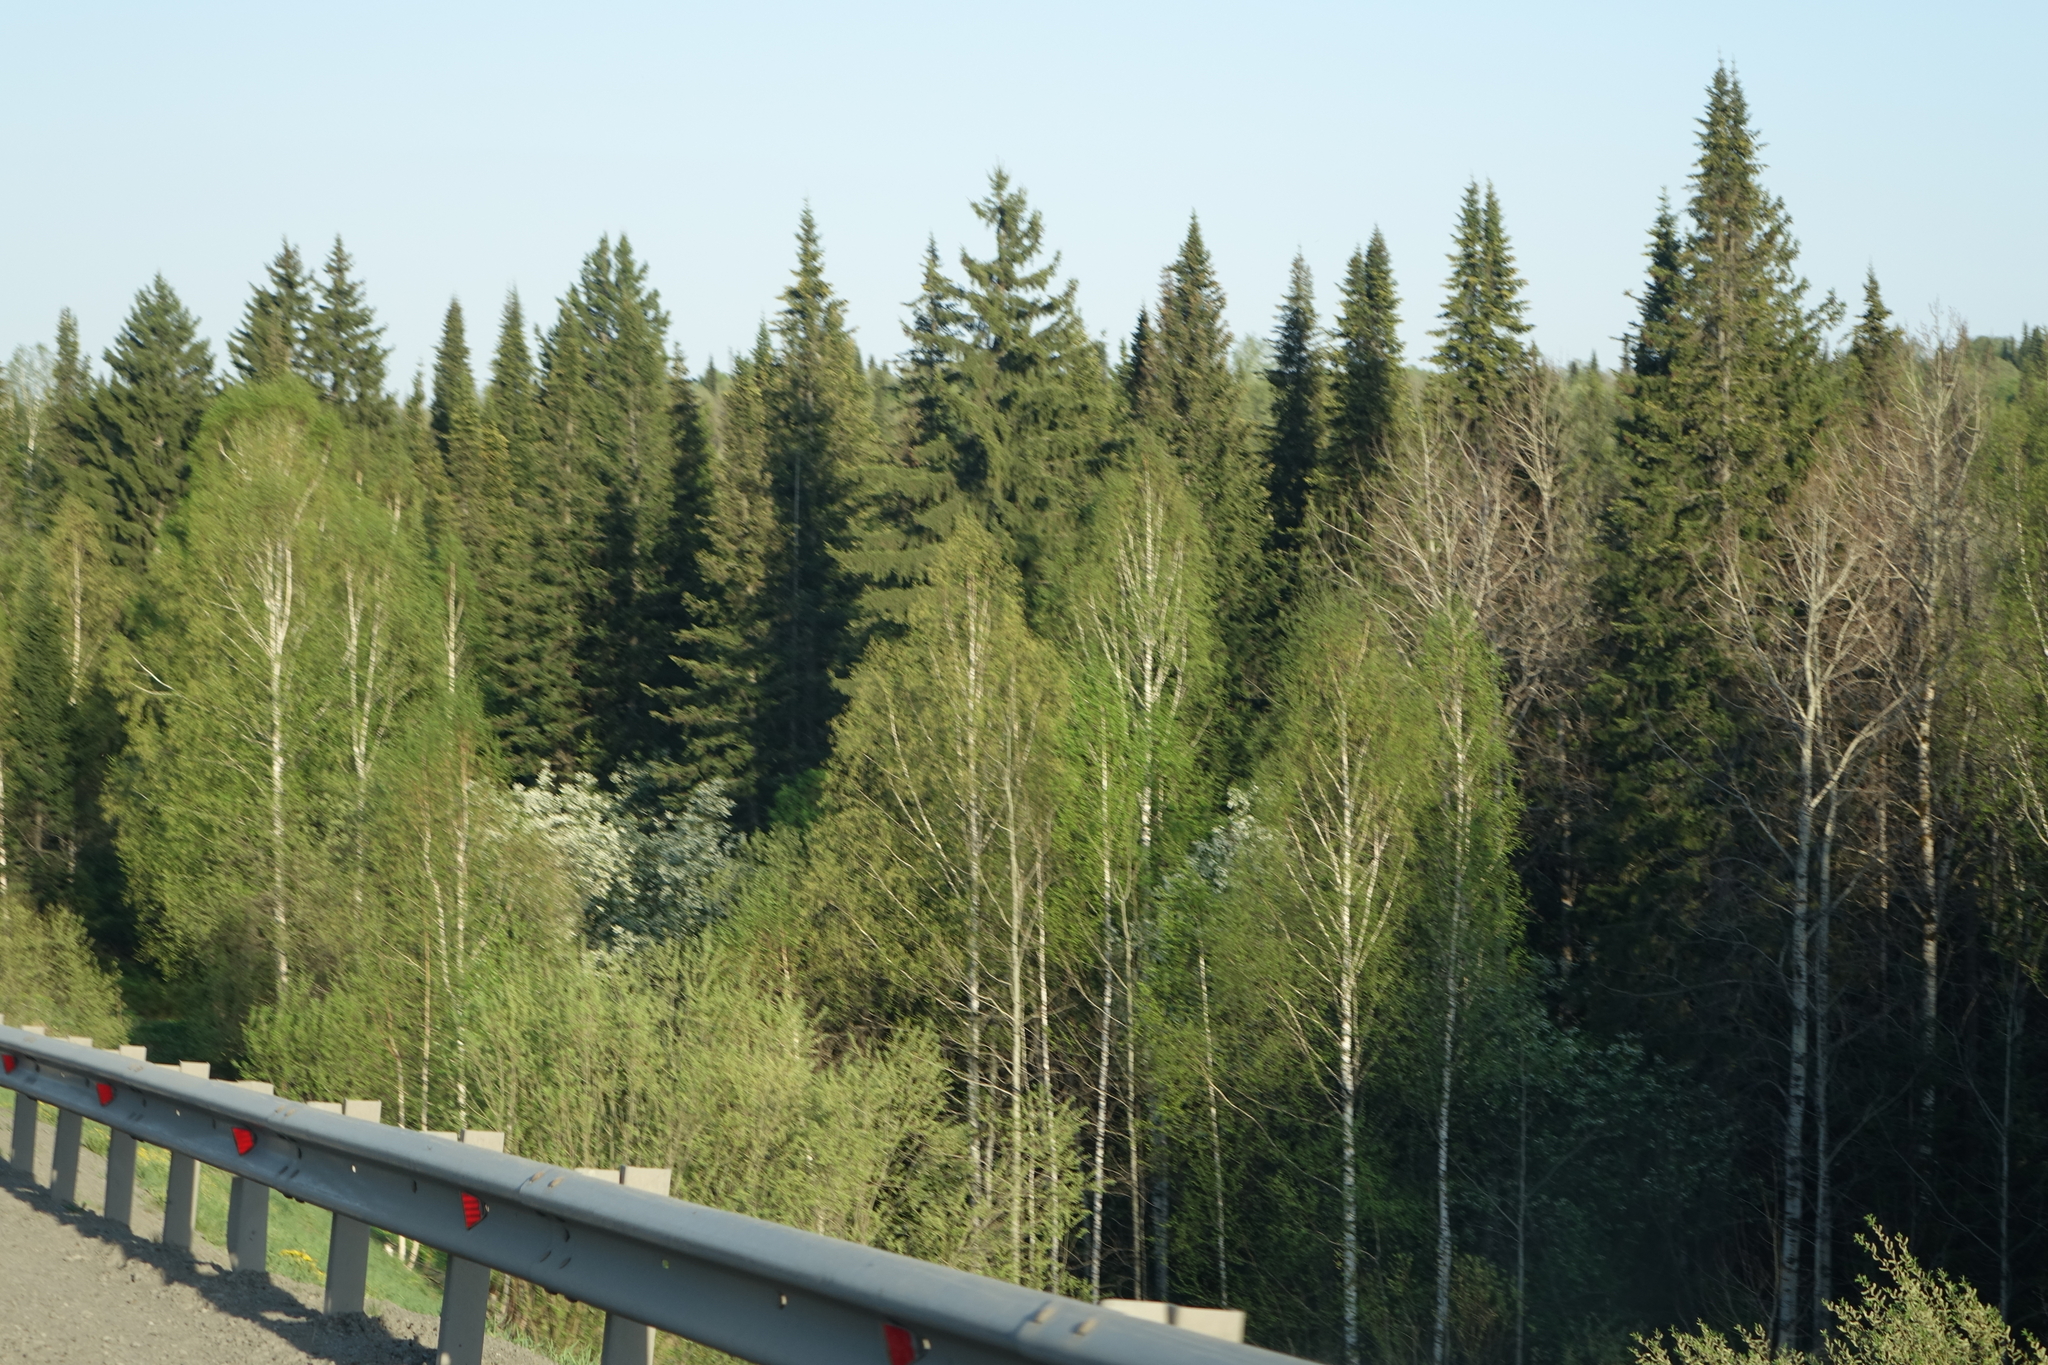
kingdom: Plantae
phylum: Tracheophyta
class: Pinopsida
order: Pinales
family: Pinaceae
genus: Abies
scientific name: Abies sibirica
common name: Siberian fir
